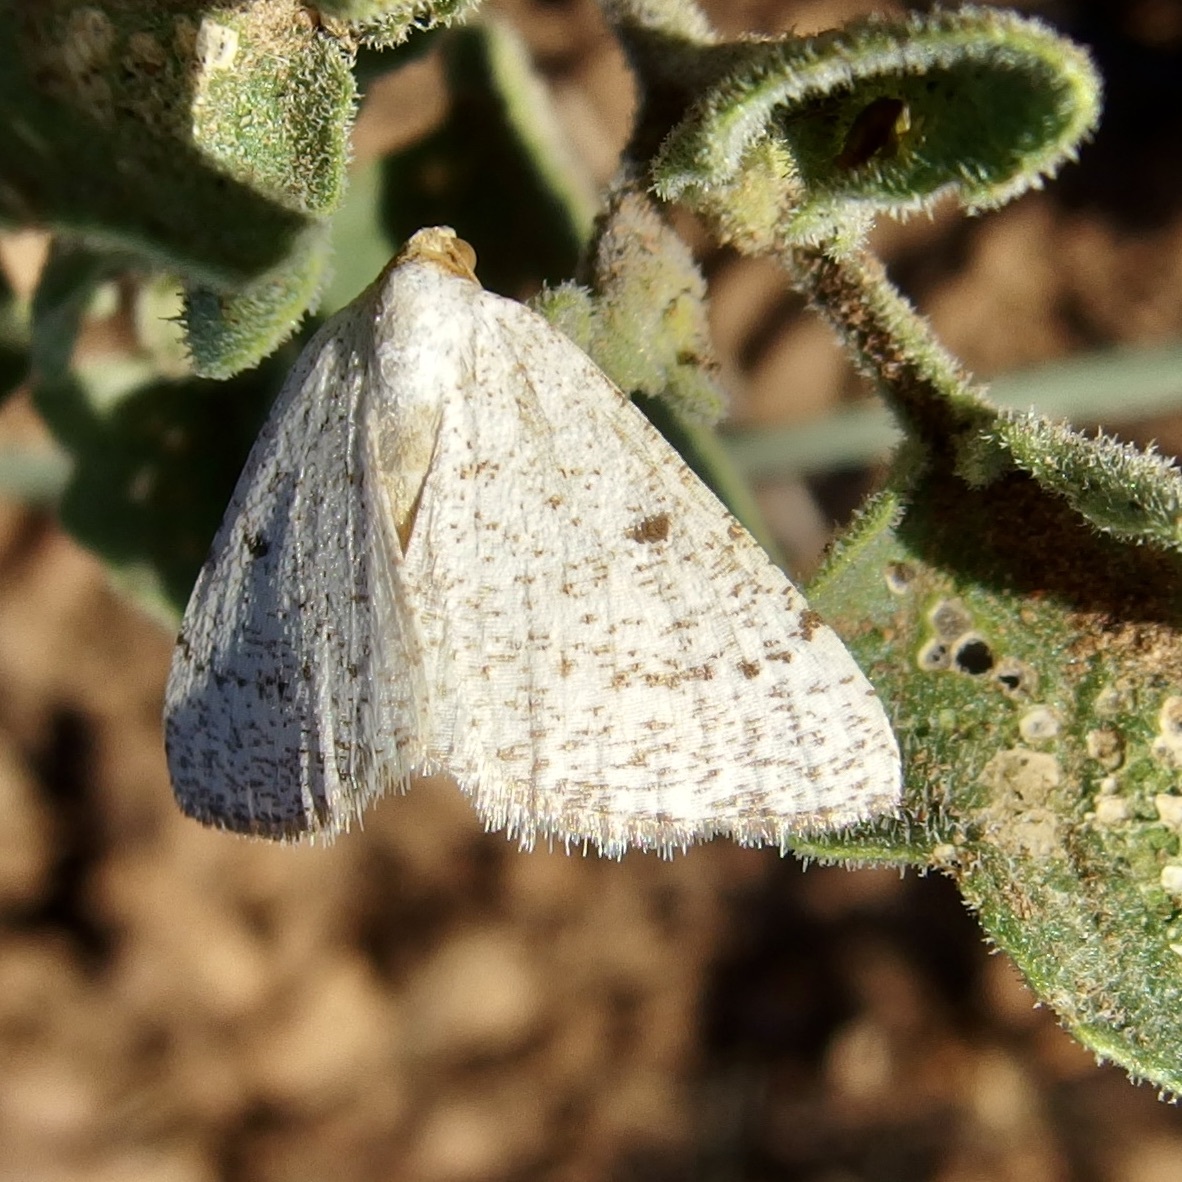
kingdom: Animalia
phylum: Arthropoda
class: Insecta
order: Lepidoptera
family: Geometridae
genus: Macaria
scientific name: Macaria mendicata
